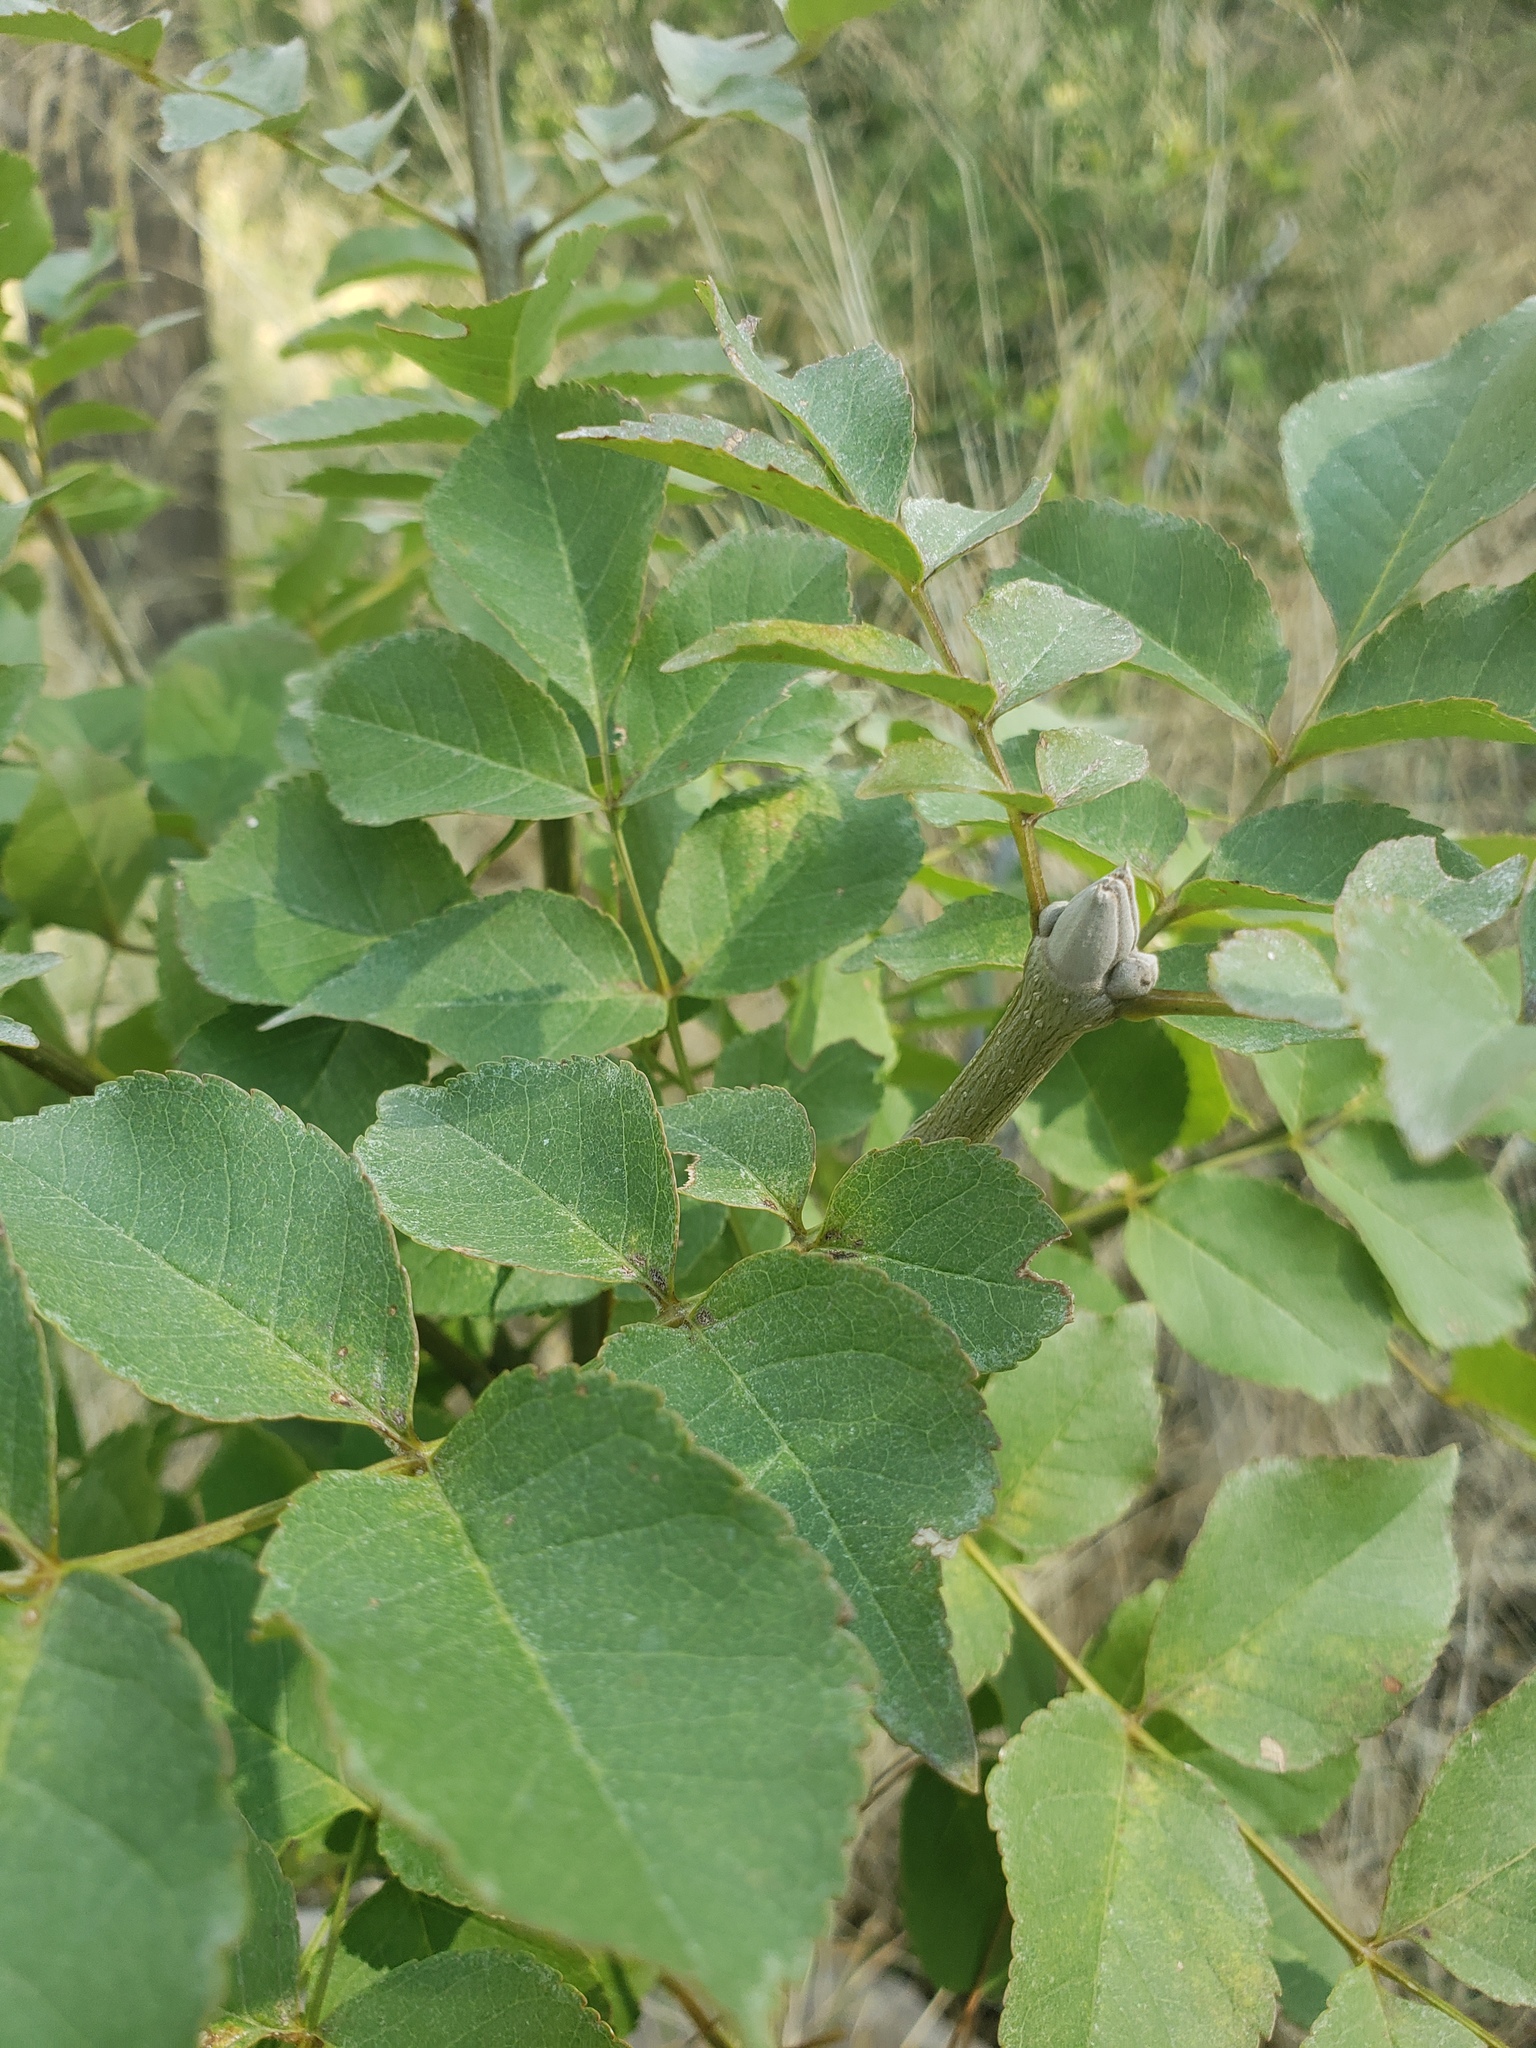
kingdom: Plantae
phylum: Tracheophyta
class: Magnoliopsida
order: Lamiales
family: Oleaceae
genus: Fraxinus
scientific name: Fraxinus ornus
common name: Manna ash
